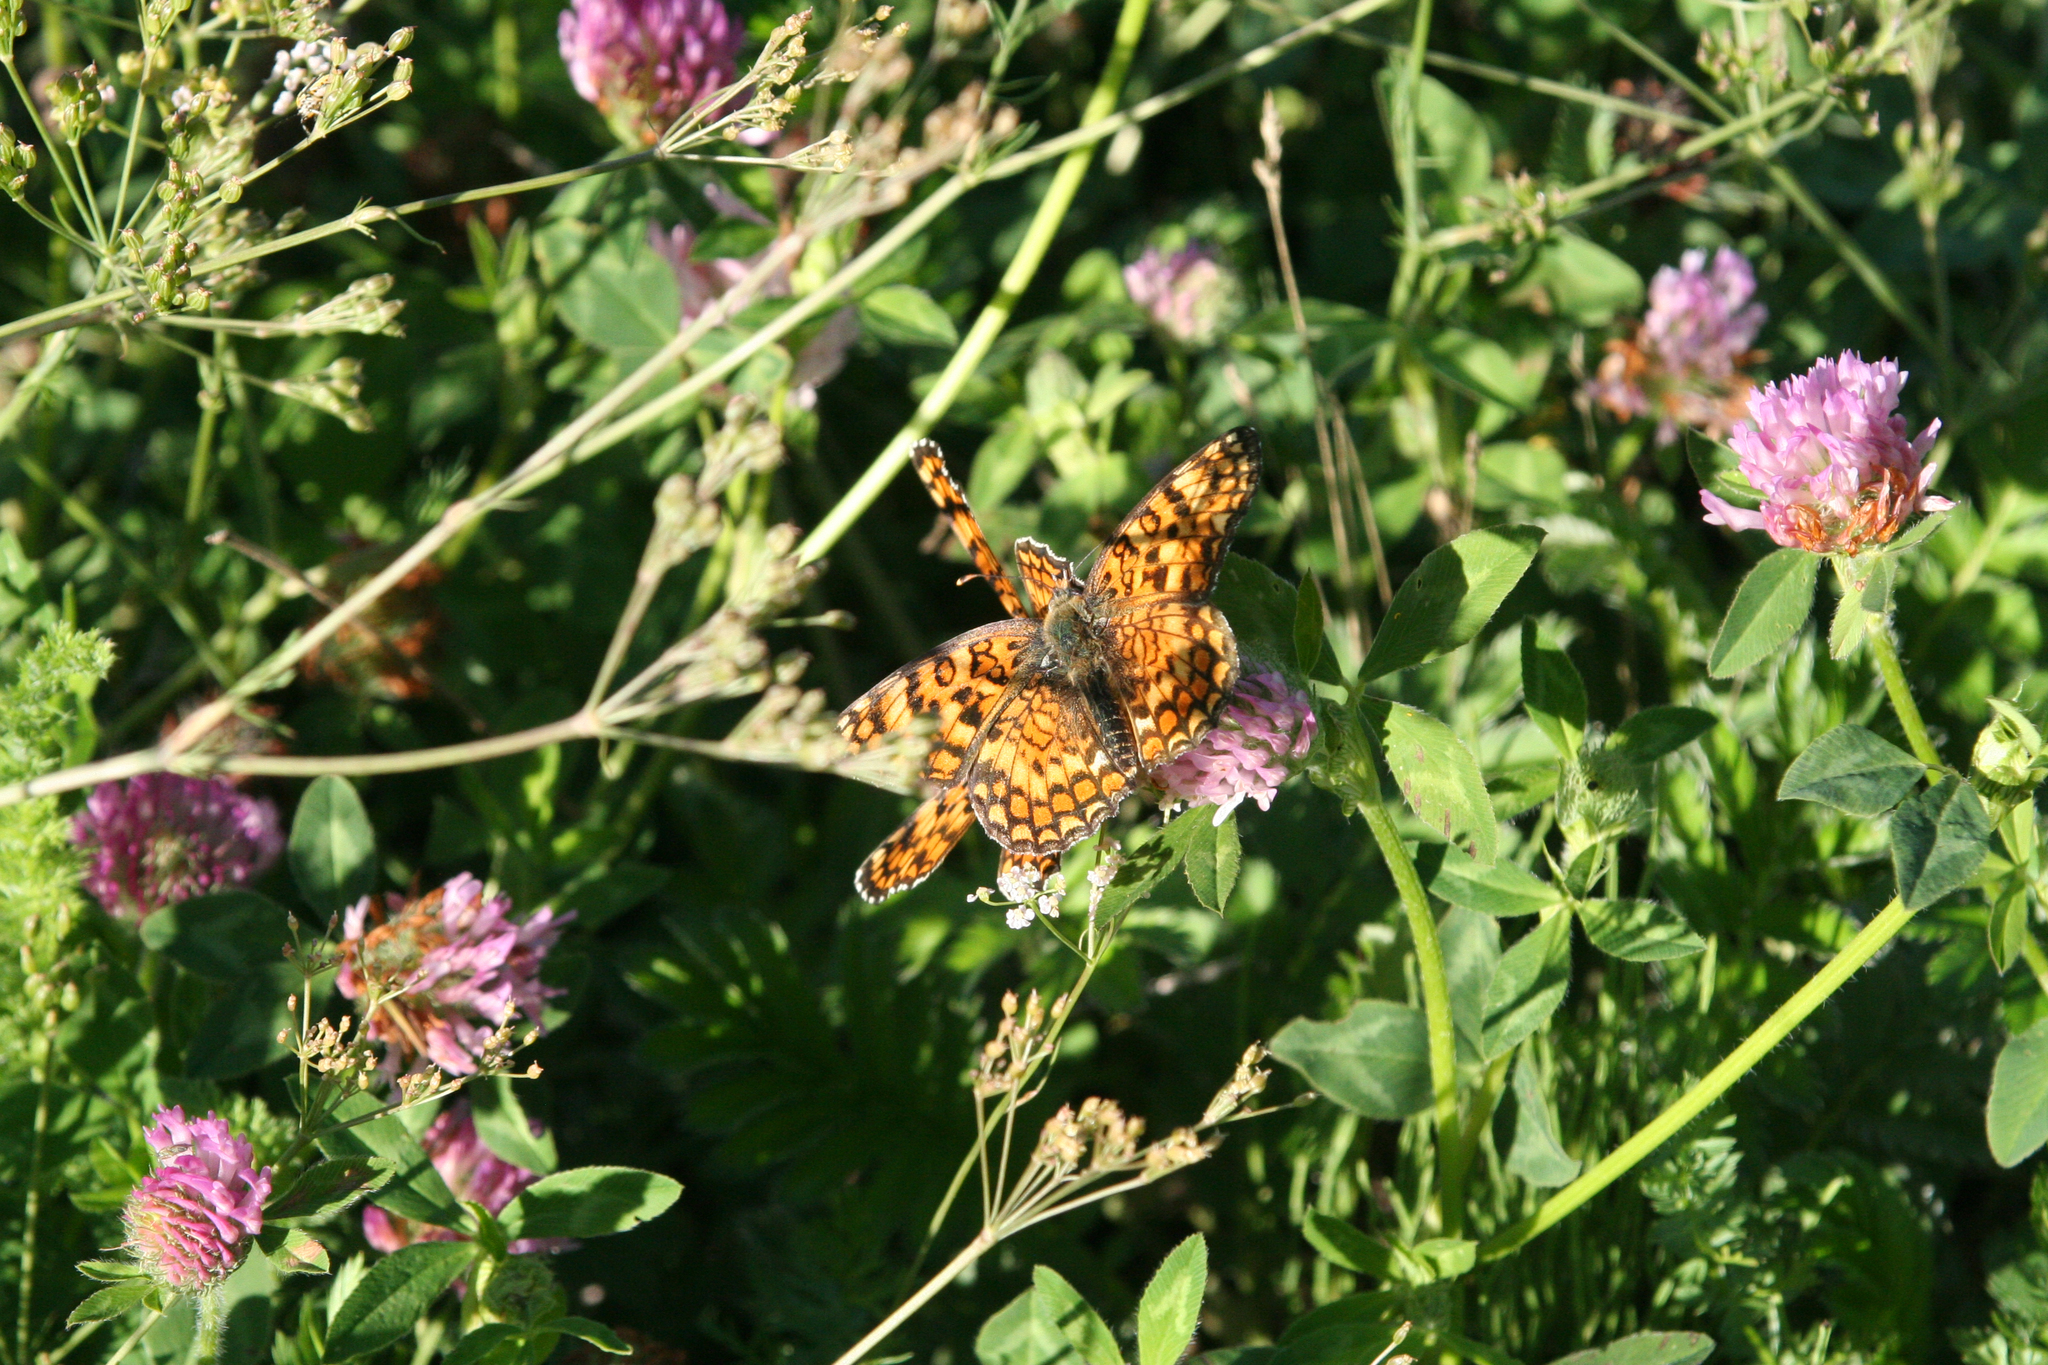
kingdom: Animalia
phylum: Arthropoda
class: Insecta
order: Lepidoptera
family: Nymphalidae
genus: Melitaea
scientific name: Melitaea phoebe
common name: Knapweed fritillary
